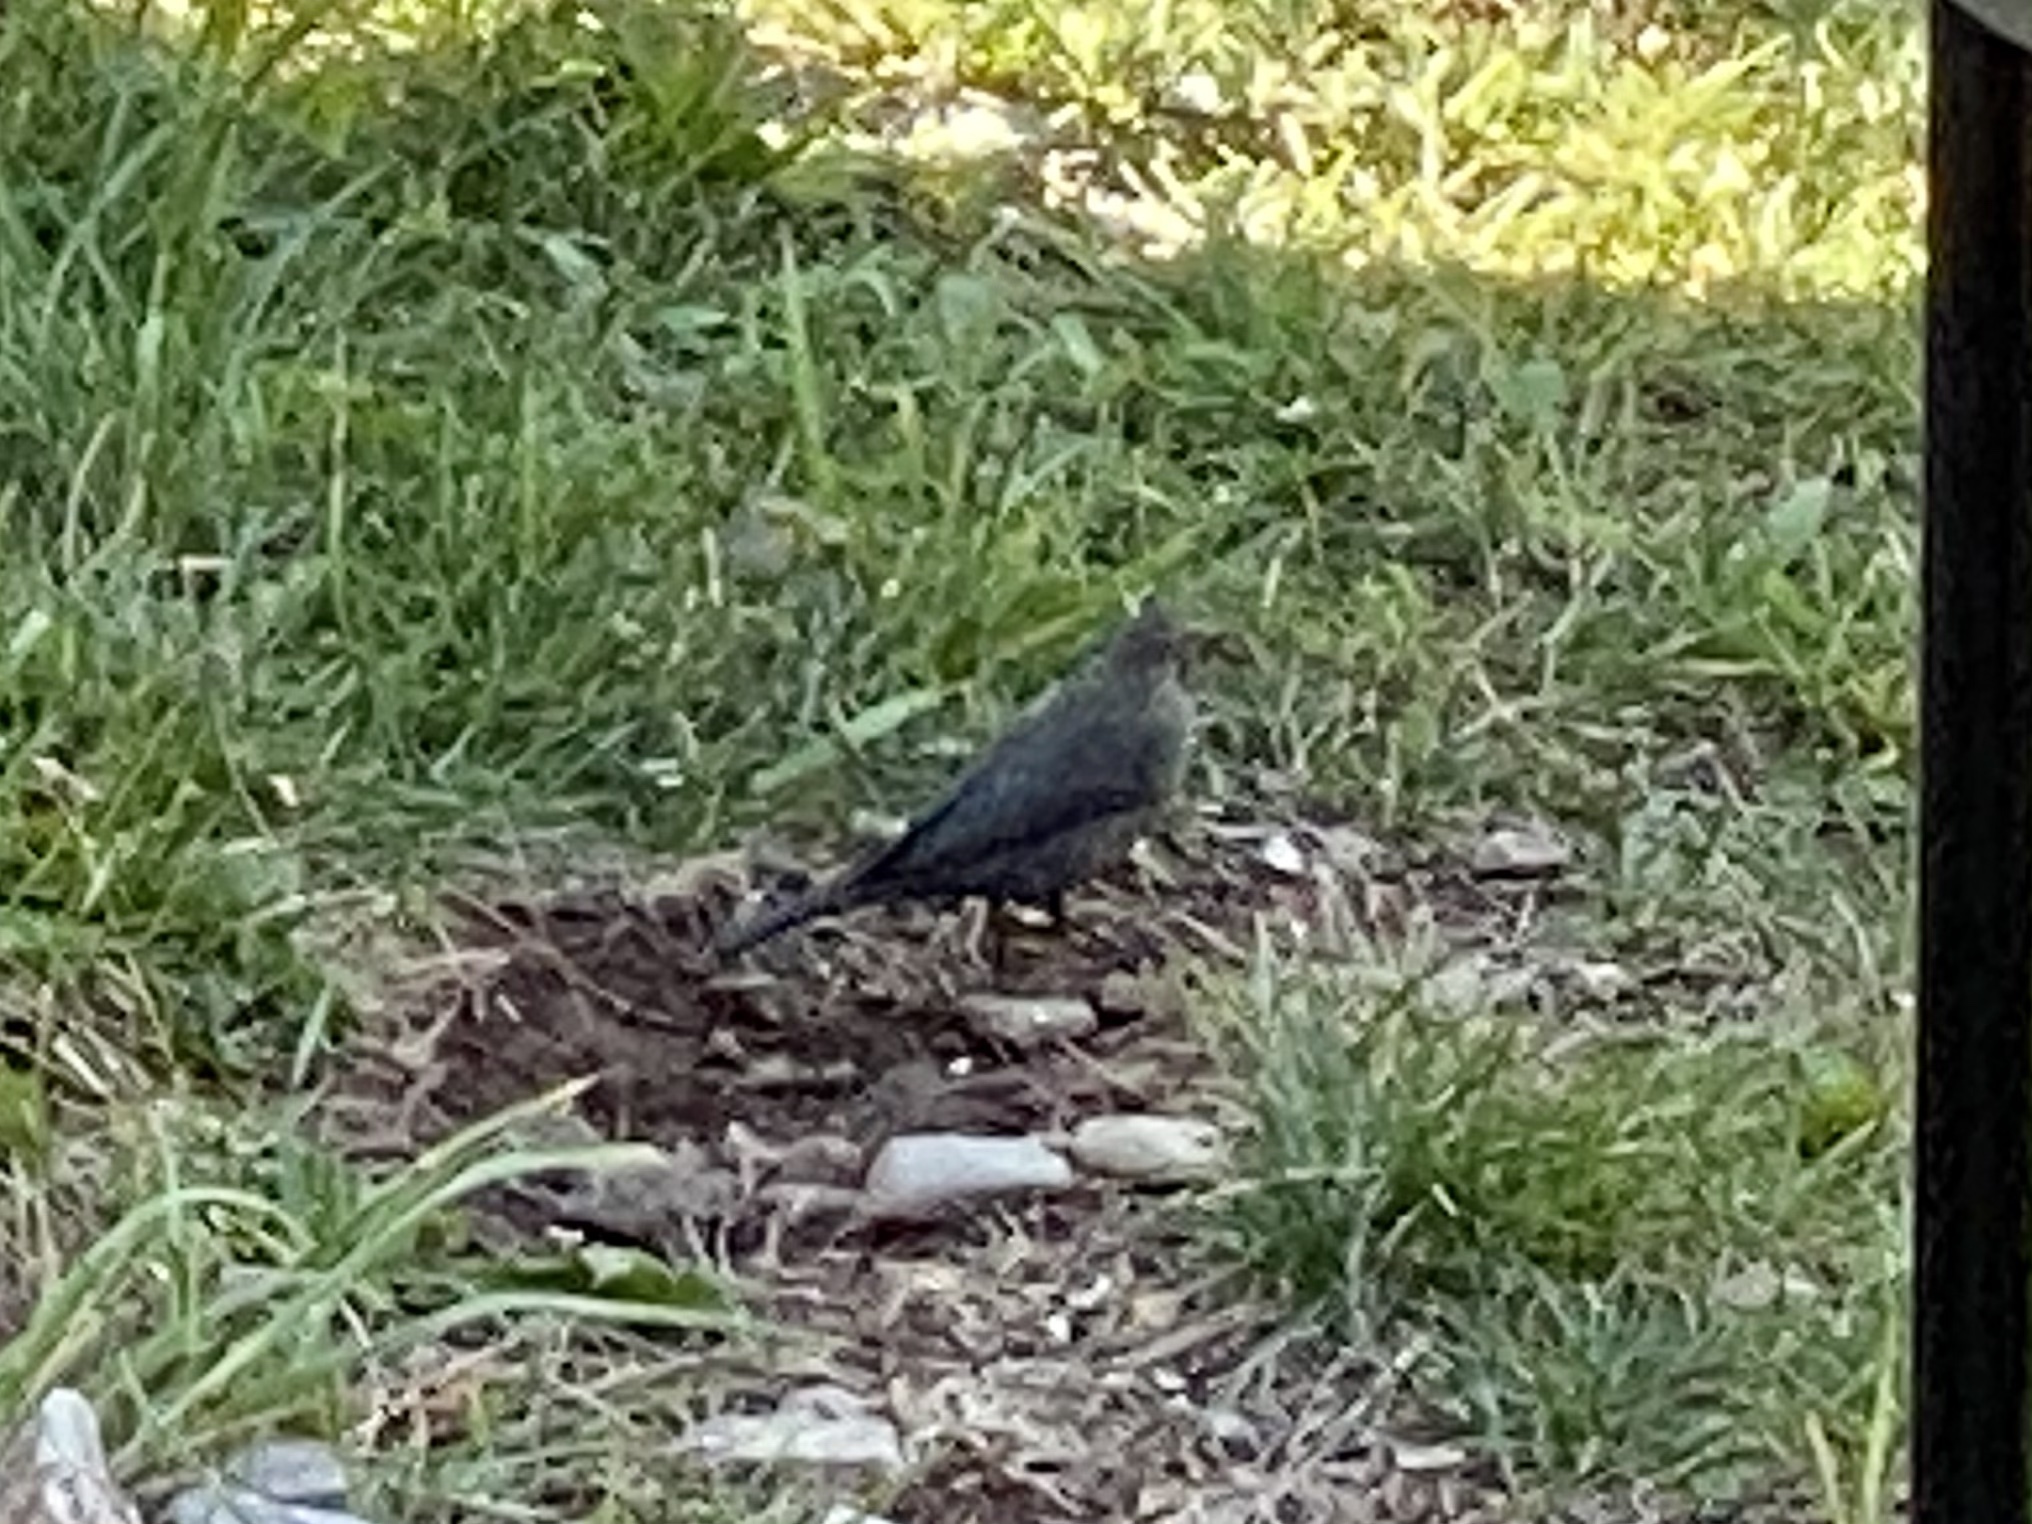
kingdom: Animalia
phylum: Chordata
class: Aves
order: Passeriformes
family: Icteridae
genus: Euphagus
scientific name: Euphagus cyanocephalus
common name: Brewer's blackbird
